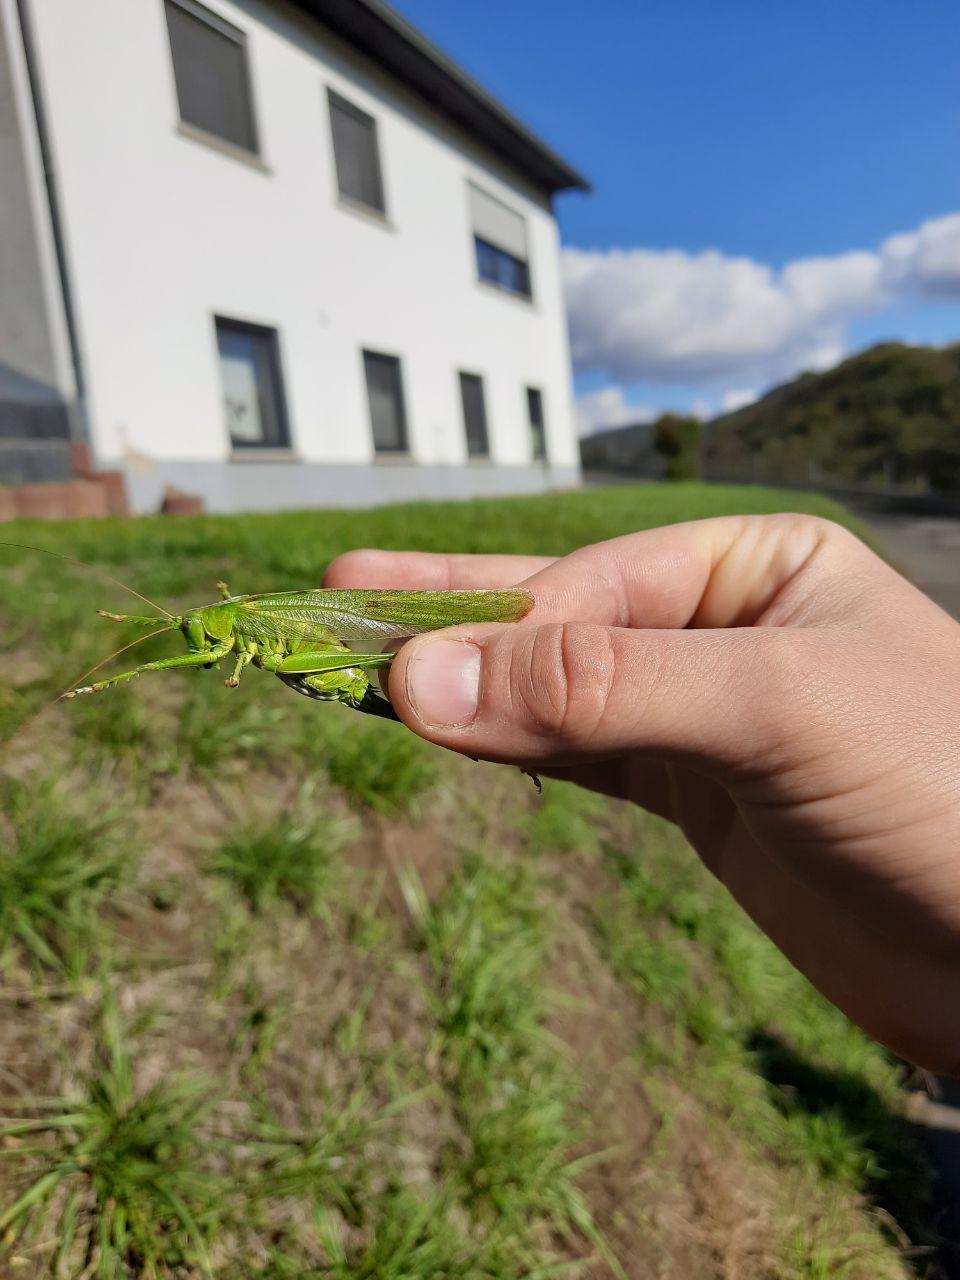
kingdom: Animalia
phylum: Arthropoda
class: Insecta
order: Orthoptera
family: Tettigoniidae
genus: Tettigonia
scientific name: Tettigonia viridissima
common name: Great green bush-cricket
